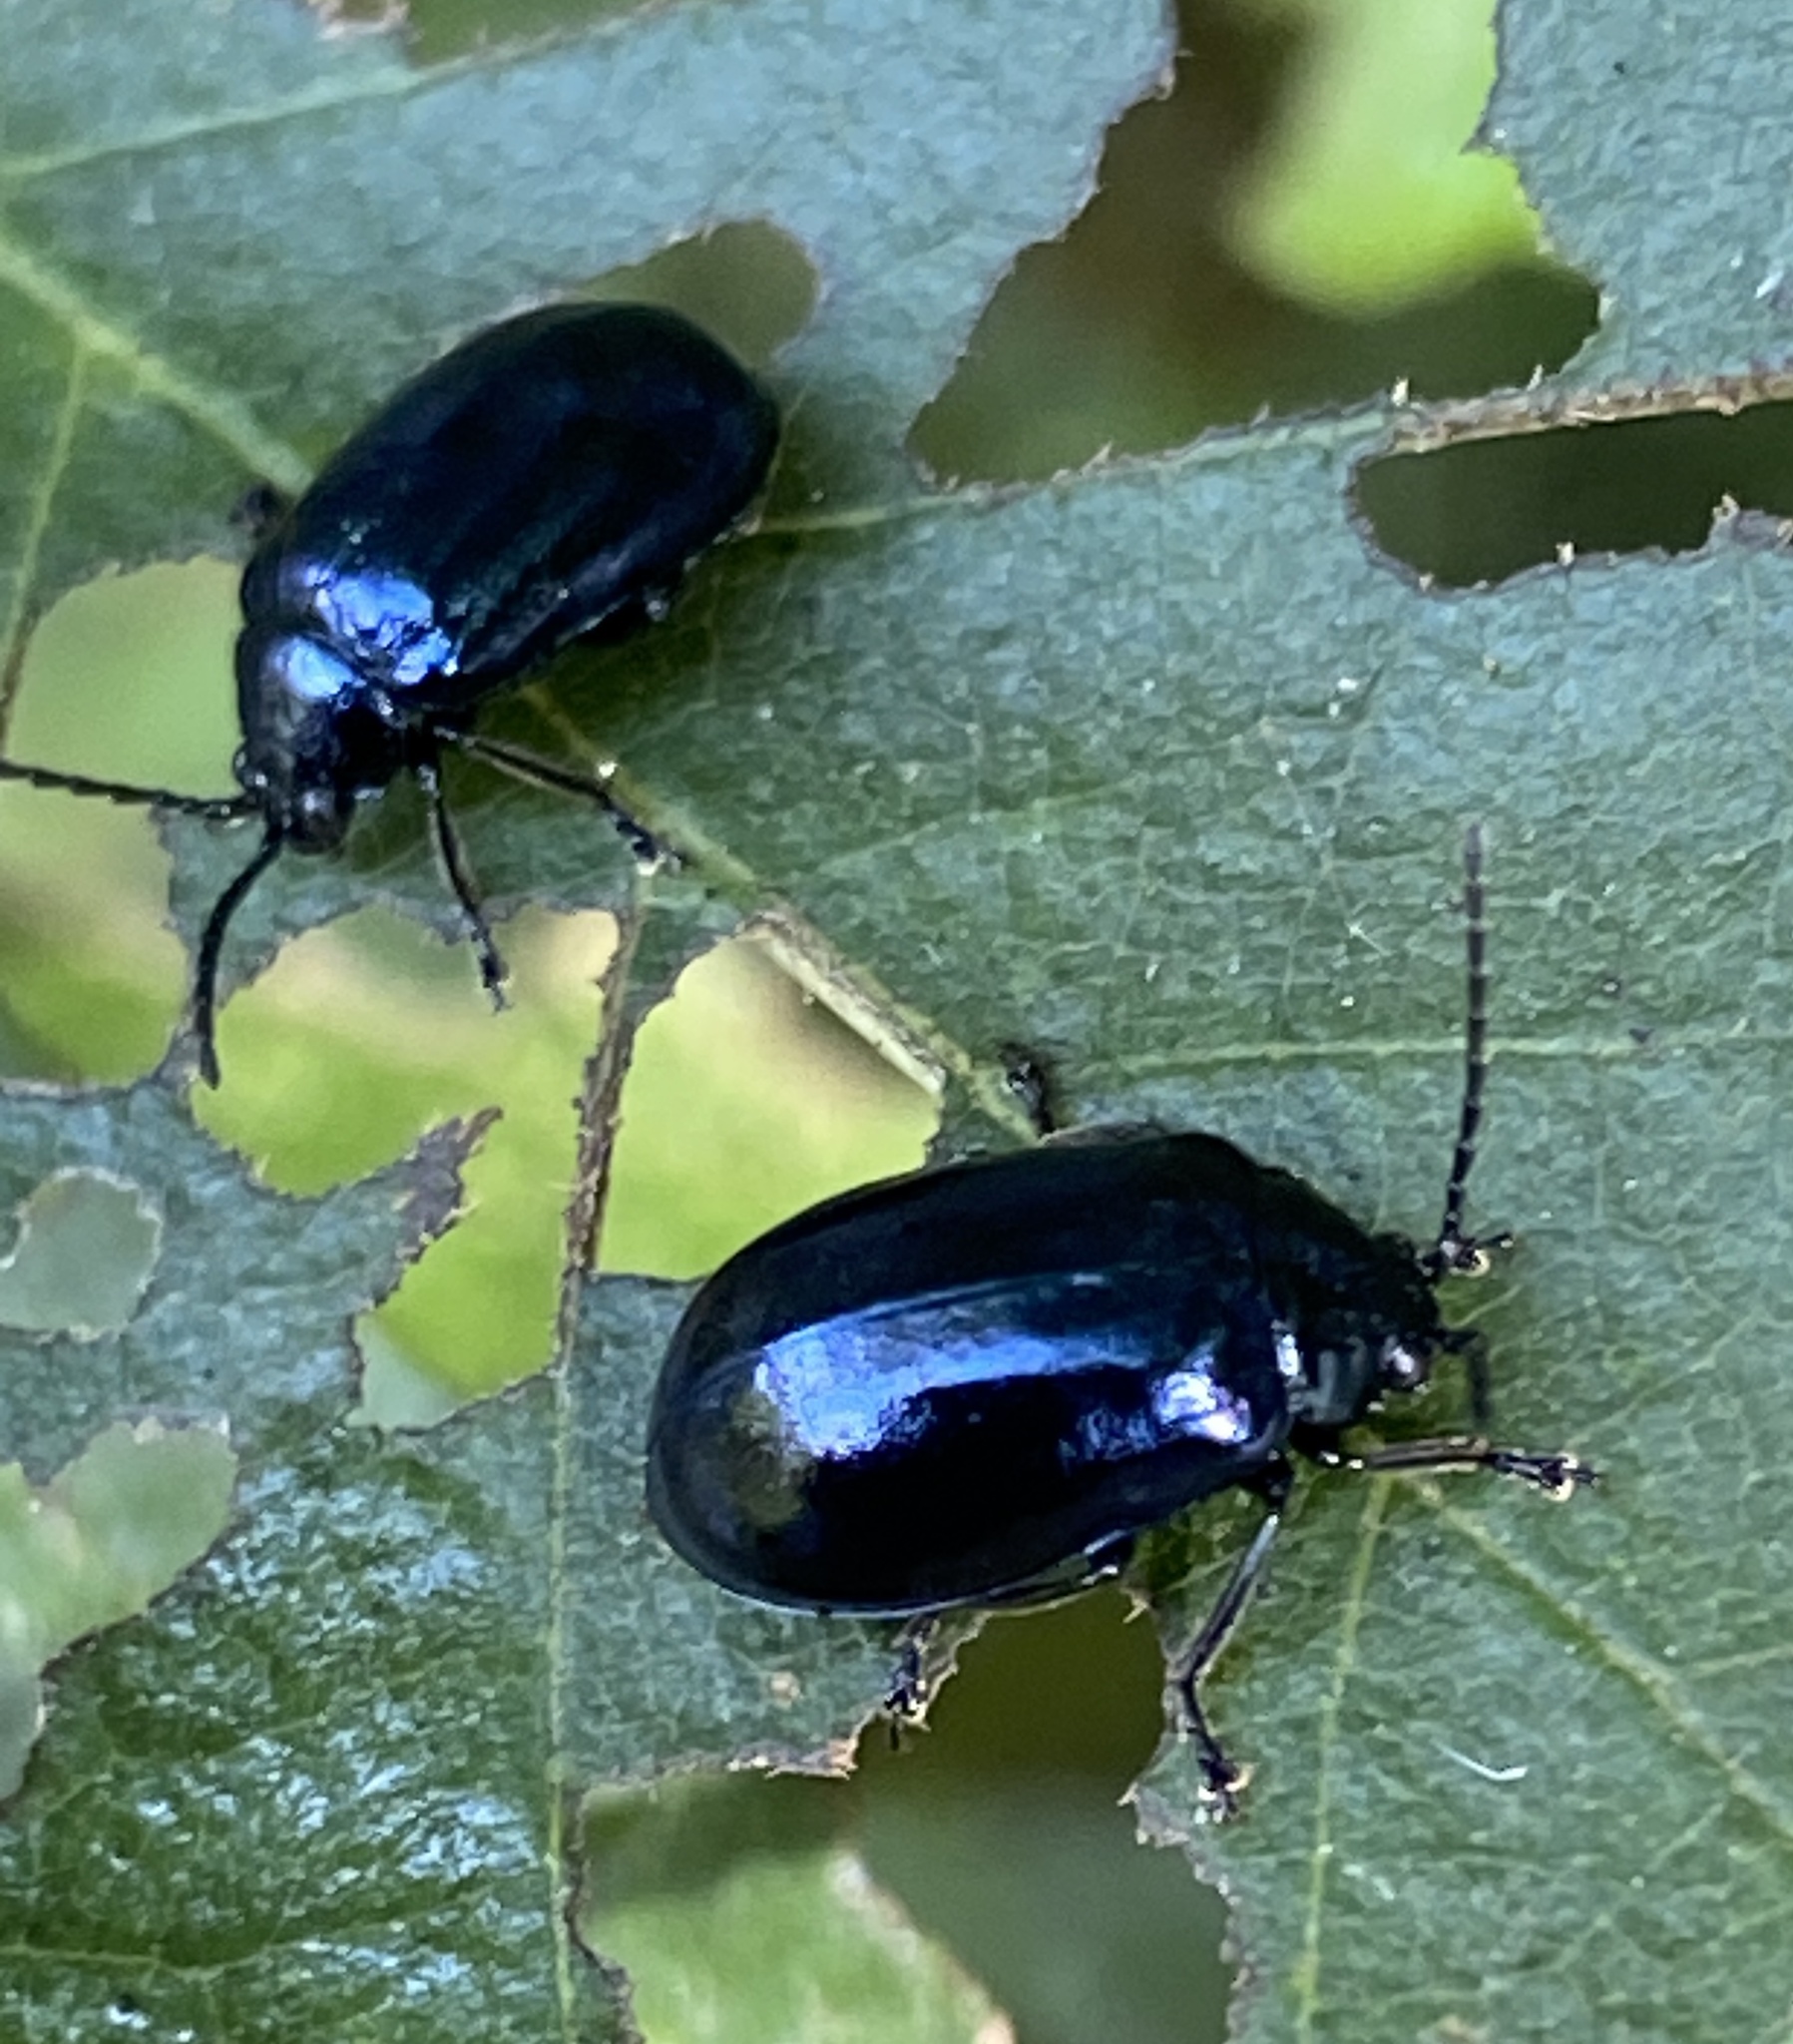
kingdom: Animalia
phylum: Arthropoda
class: Insecta
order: Coleoptera
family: Chrysomelidae
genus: Agelastica
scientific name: Agelastica alni
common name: Alder leaf beetle
